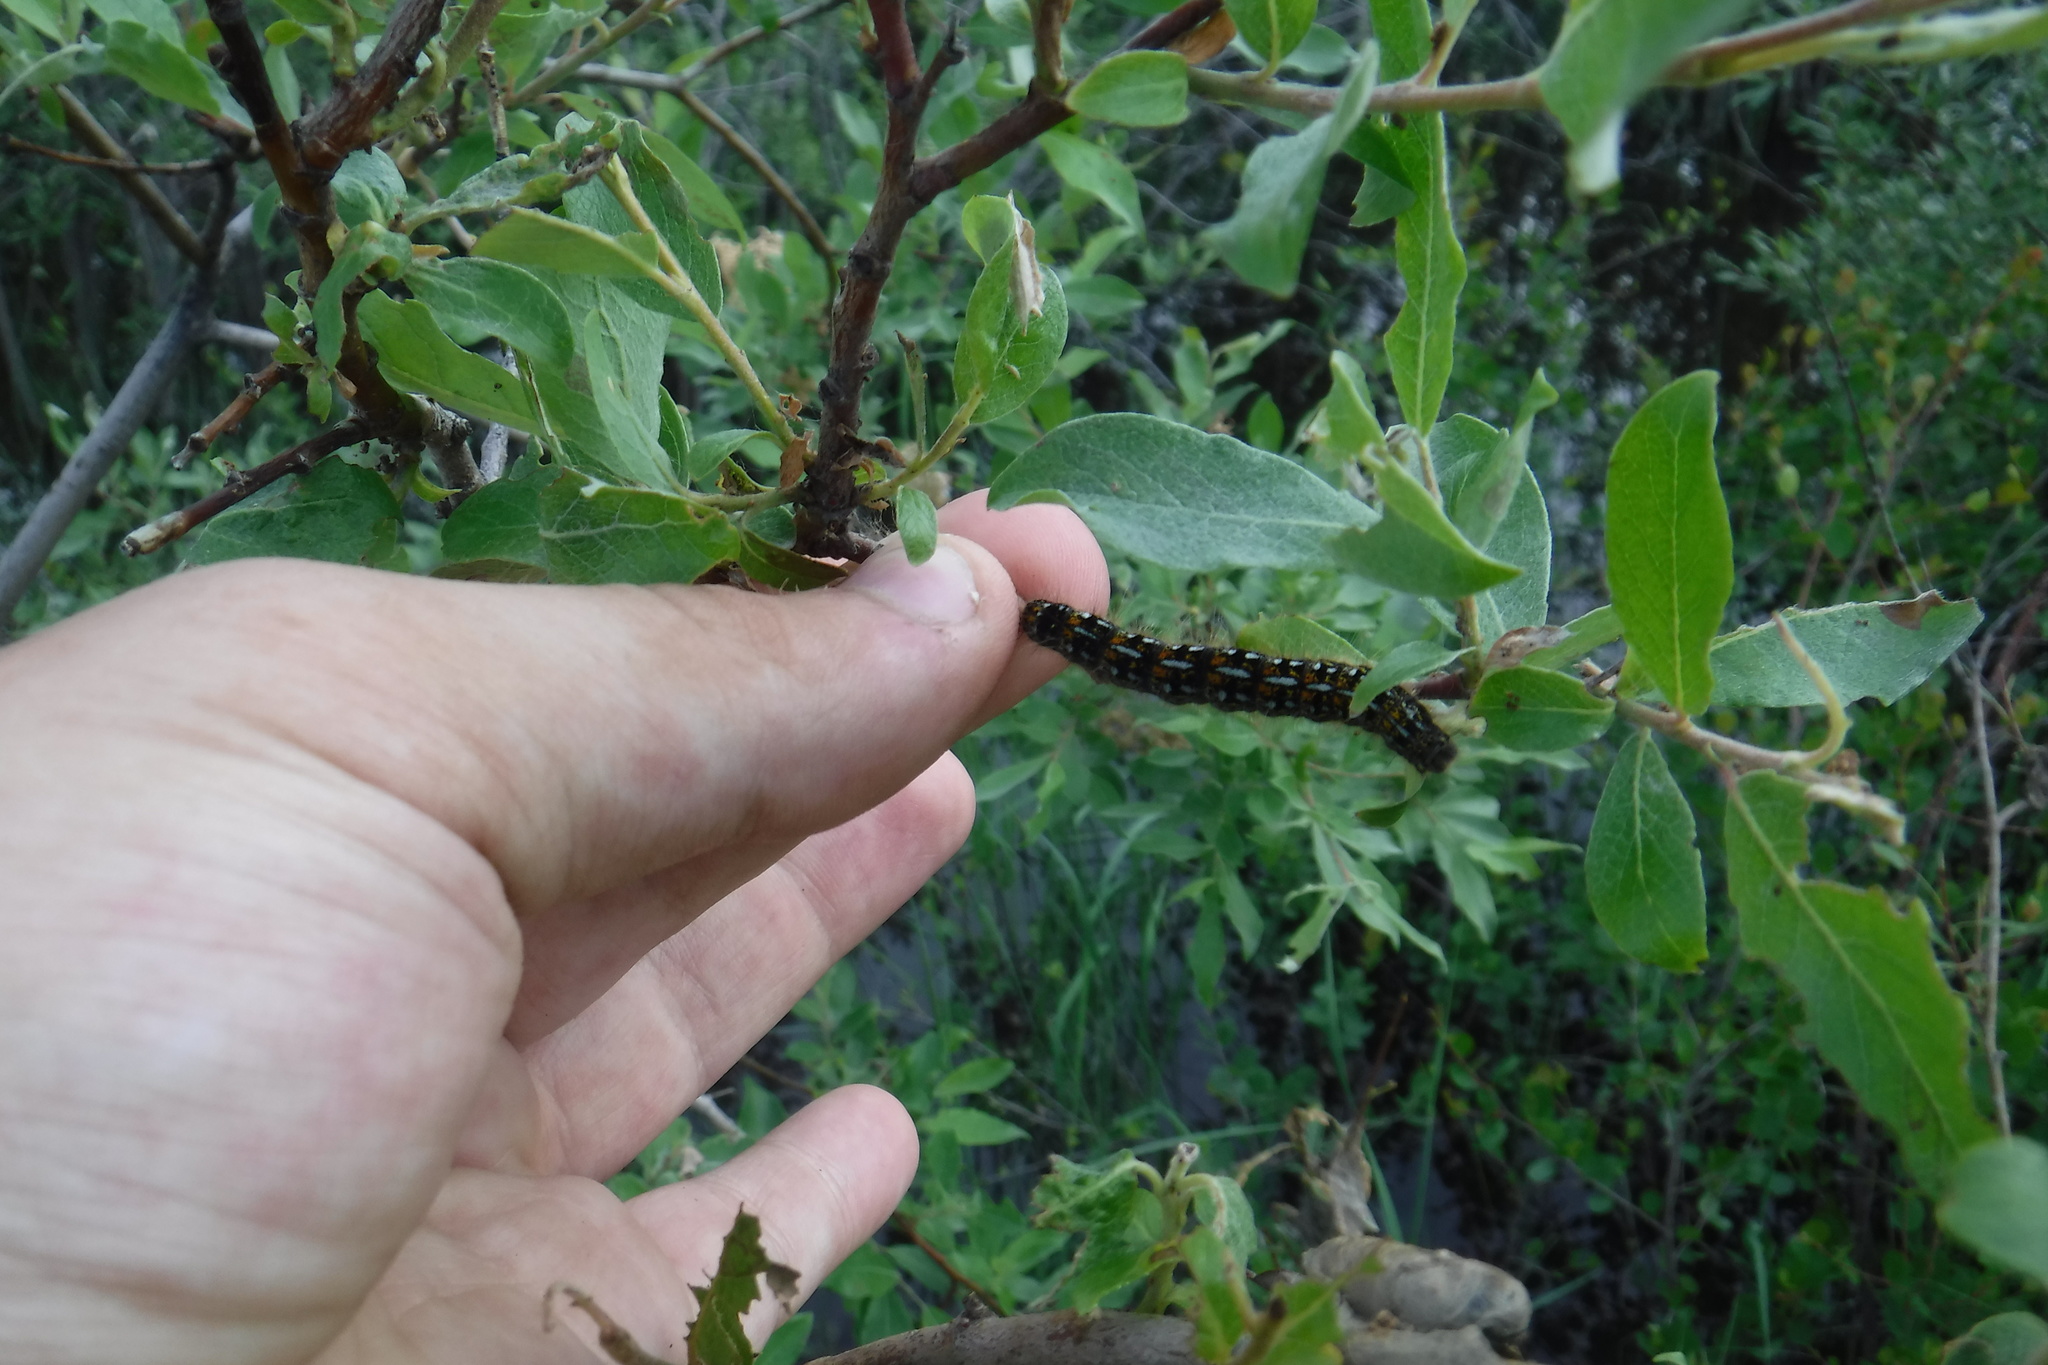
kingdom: Animalia
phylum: Arthropoda
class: Insecta
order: Lepidoptera
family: Lasiocampidae
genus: Malacosoma
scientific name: Malacosoma californica
